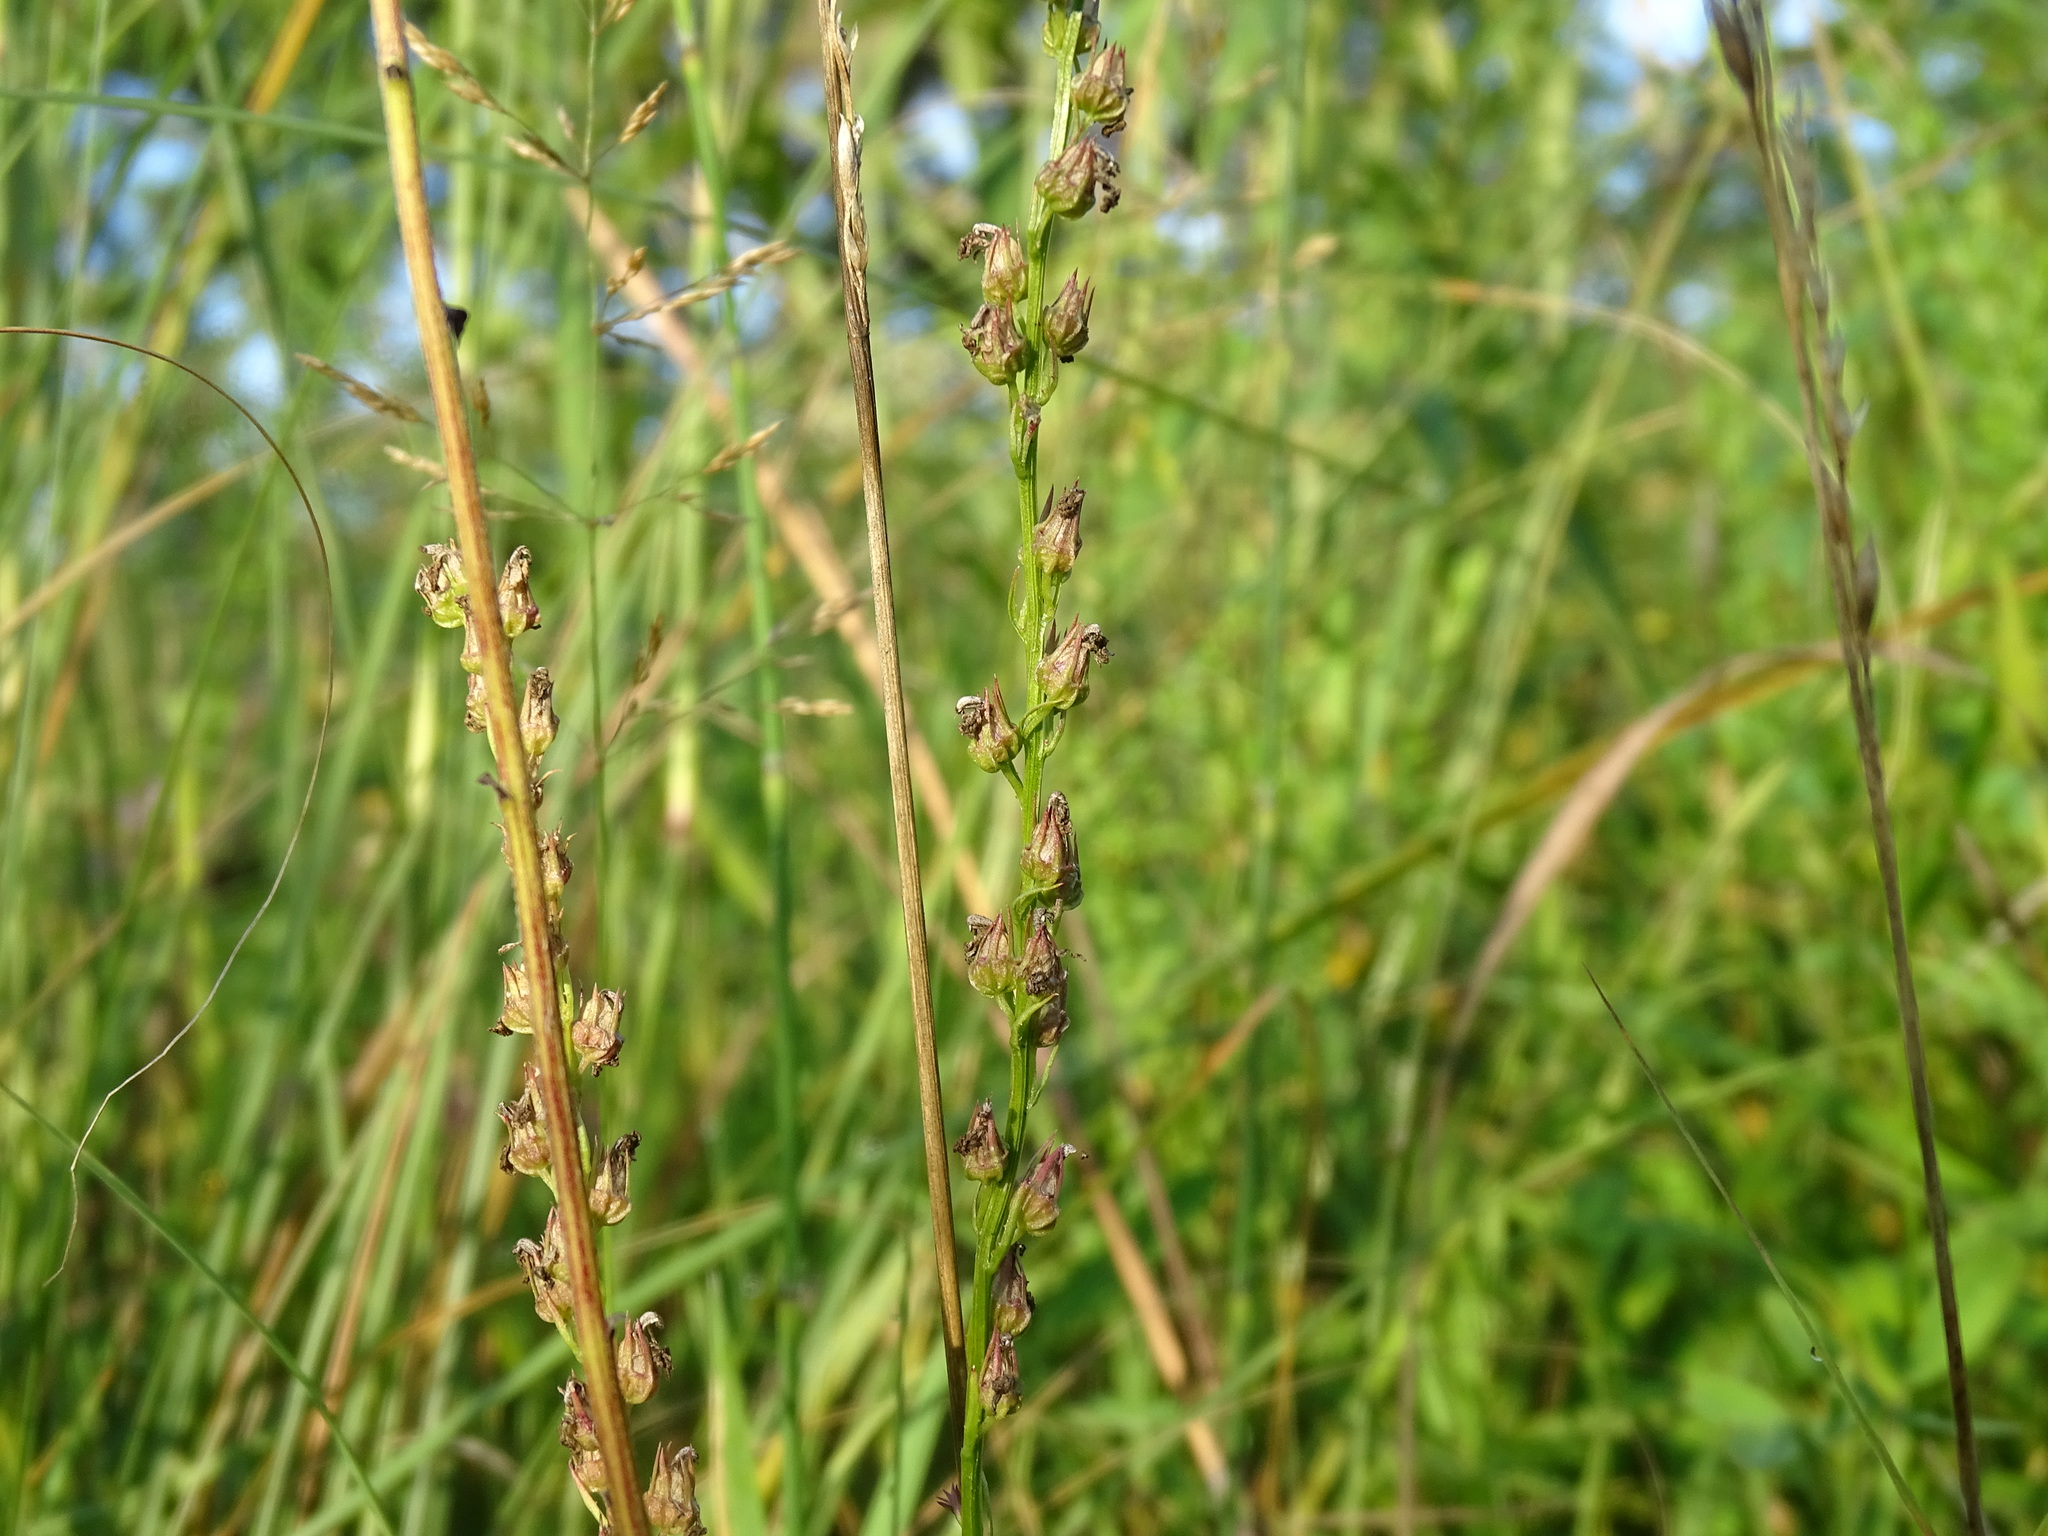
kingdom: Plantae
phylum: Tracheophyta
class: Magnoliopsida
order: Asterales
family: Campanulaceae
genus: Lobelia
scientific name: Lobelia spicata
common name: Pale-spike lobelia
